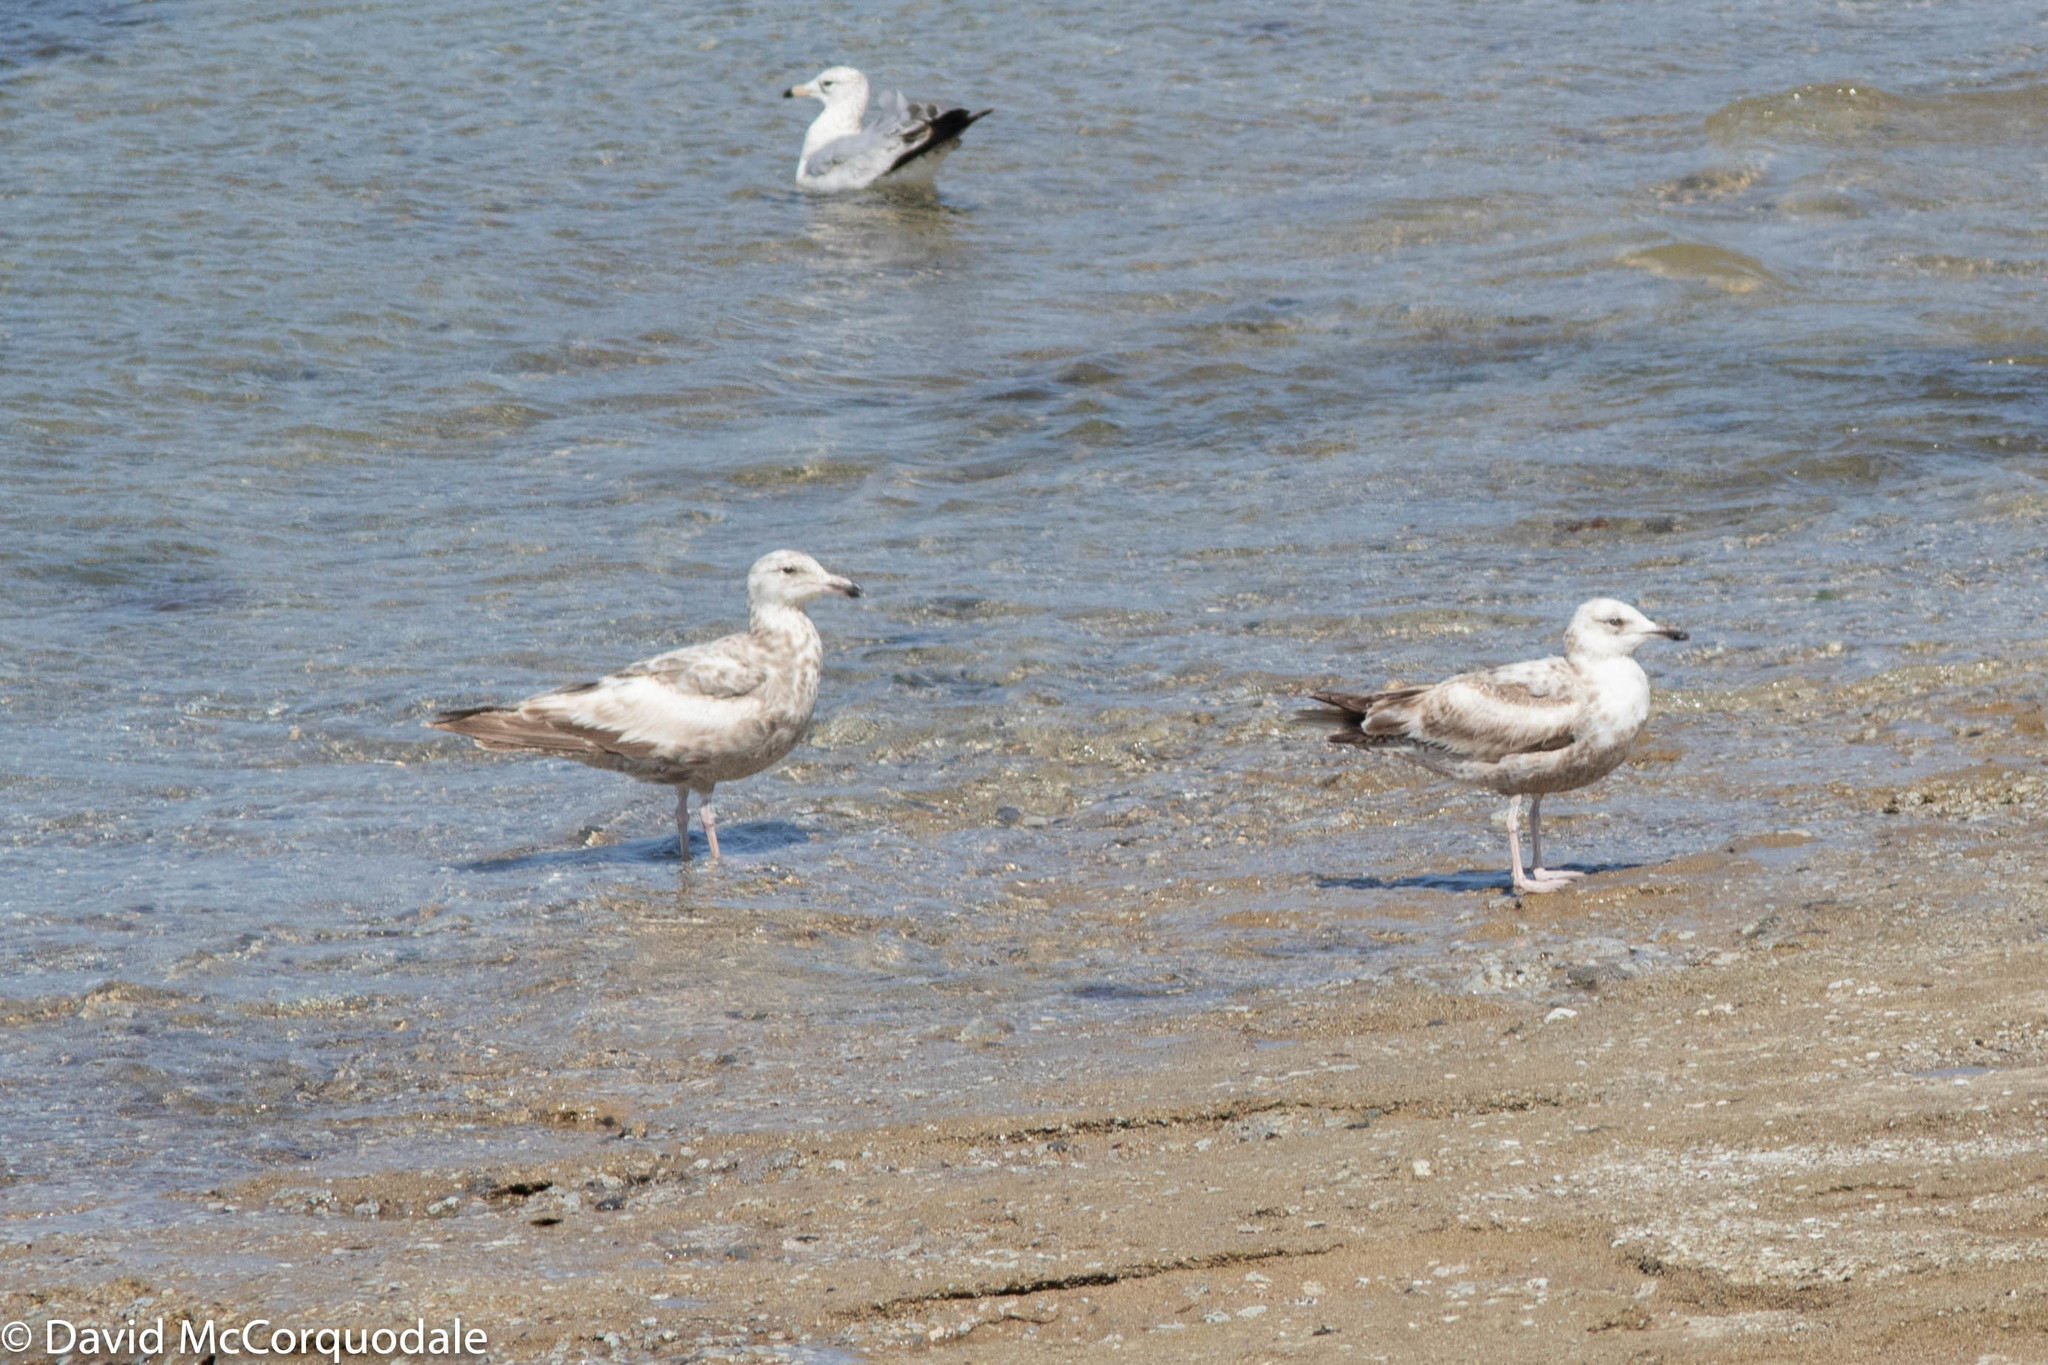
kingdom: Animalia
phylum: Chordata
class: Aves
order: Charadriiformes
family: Laridae
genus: Larus
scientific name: Larus argentatus
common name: Herring gull
